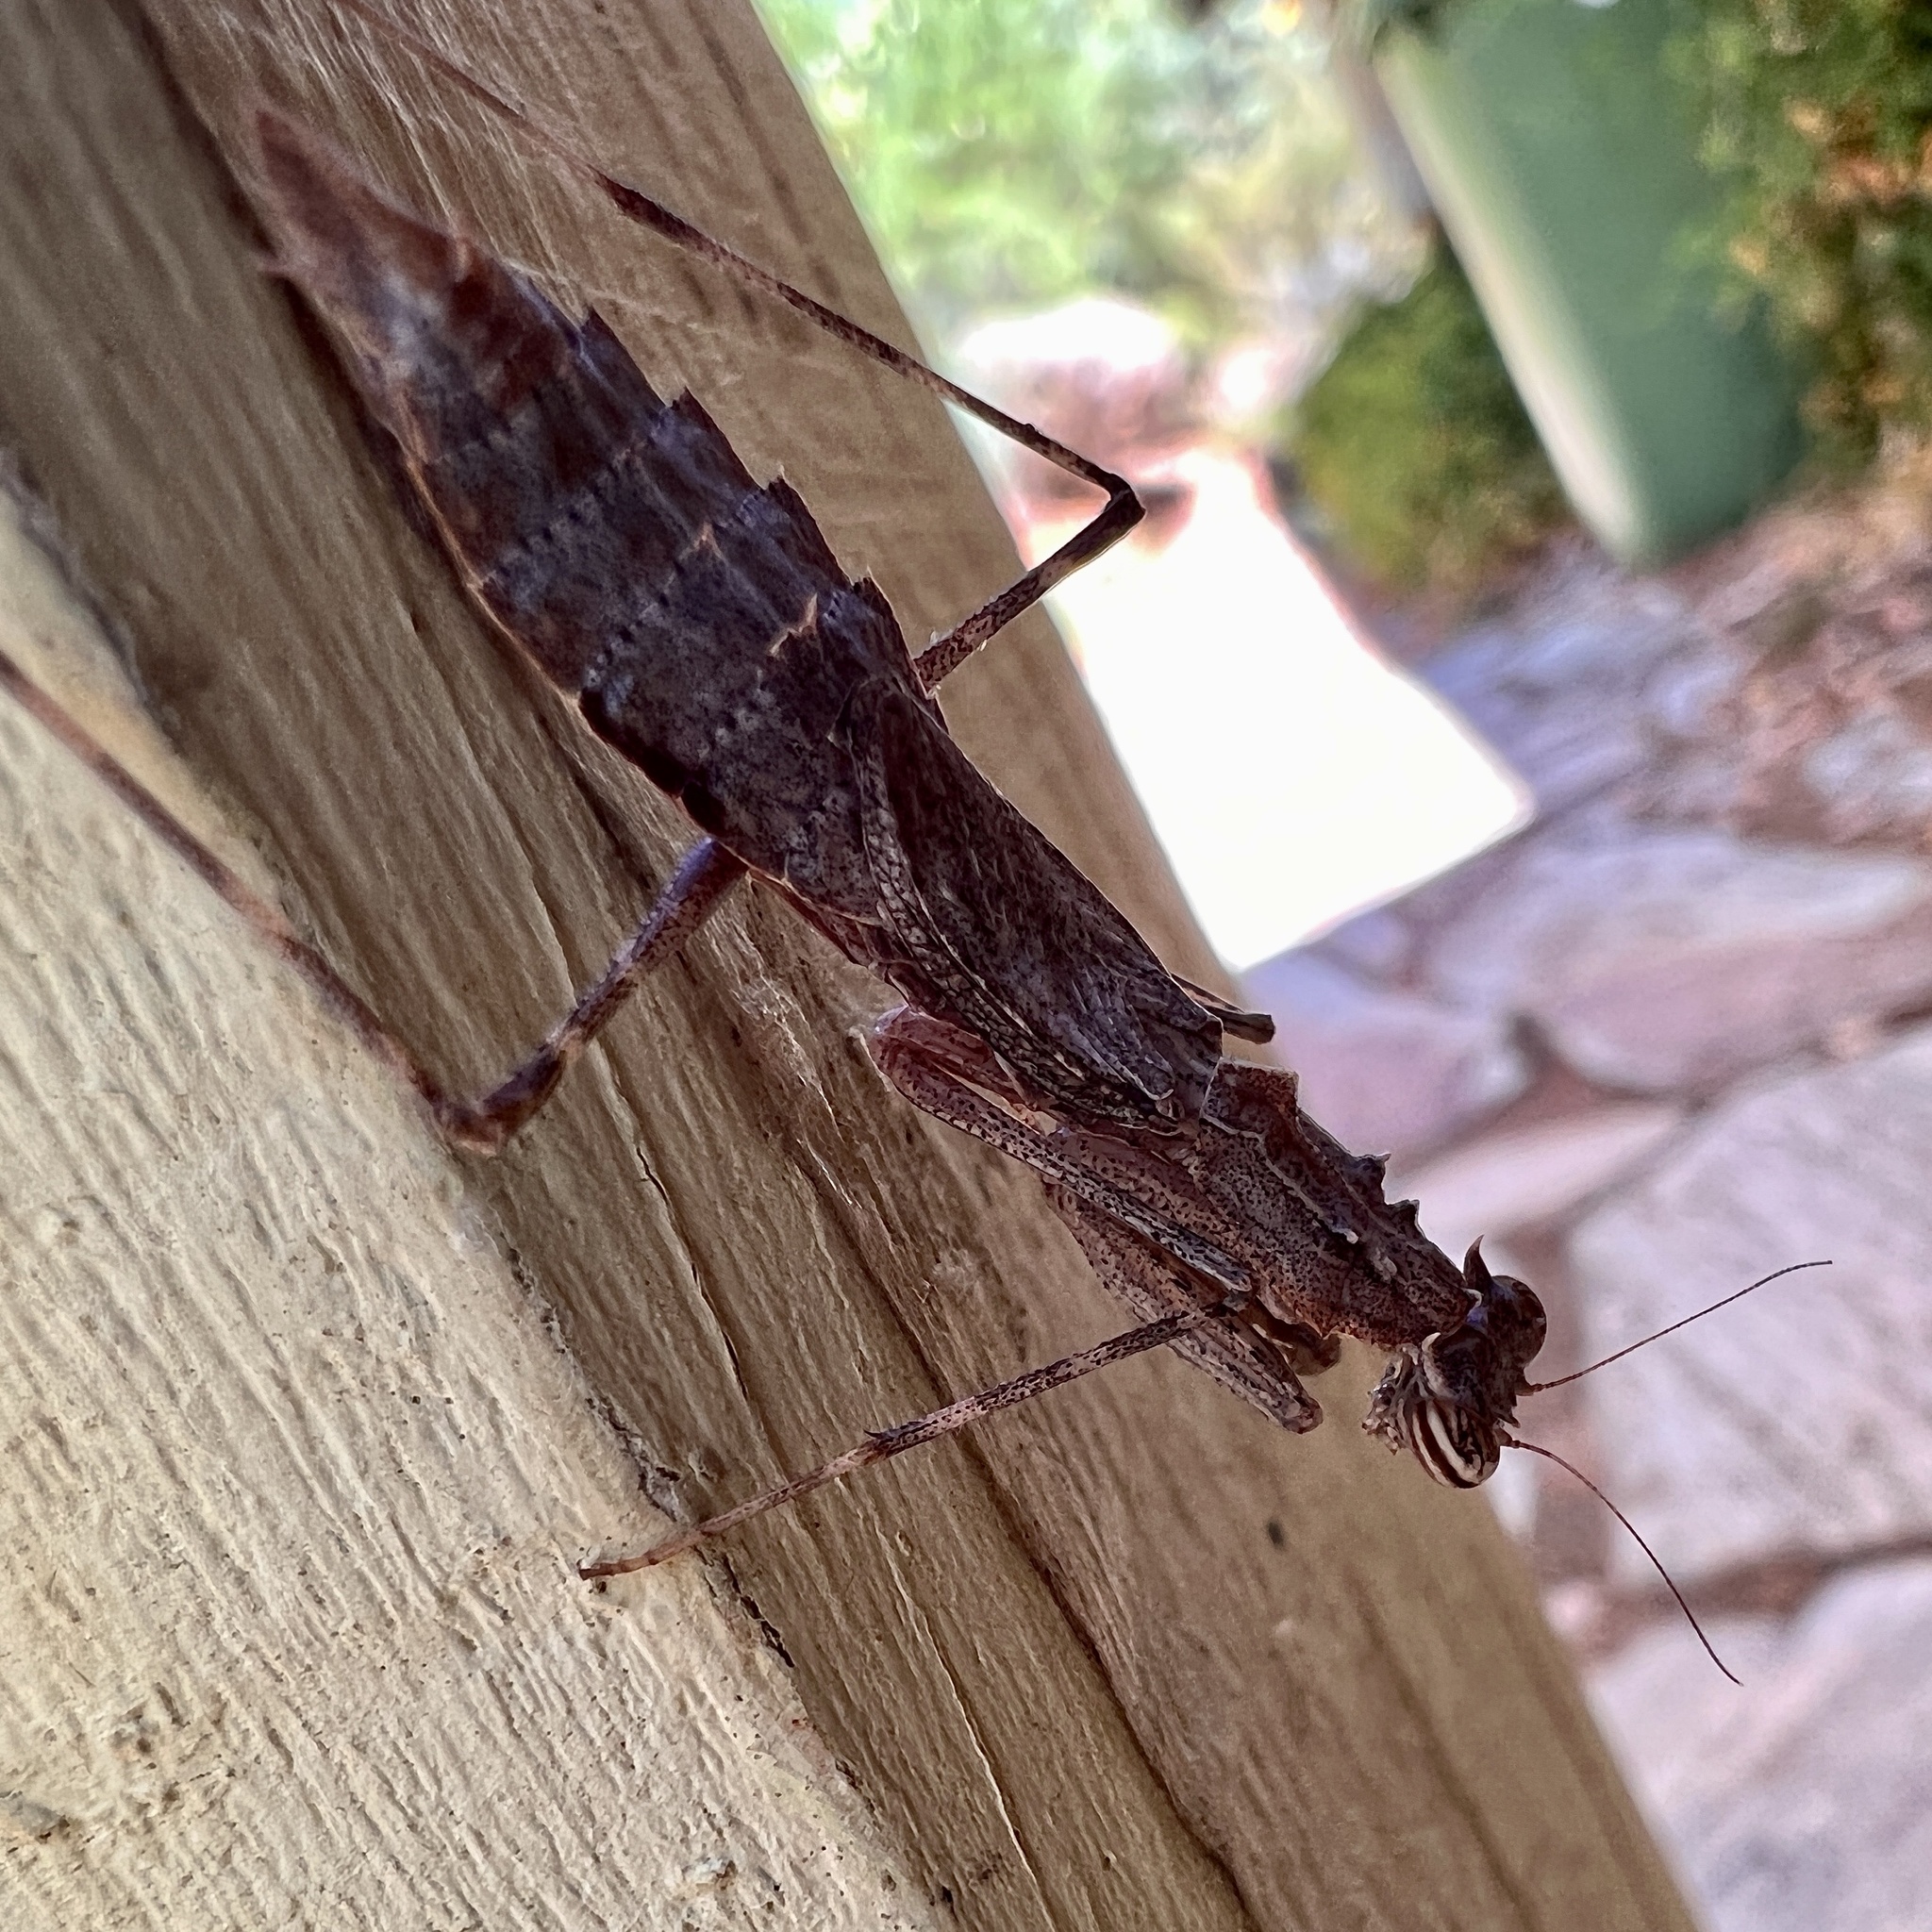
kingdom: Animalia
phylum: Arthropoda
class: Insecta
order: Mantodea
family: Nanomantidae
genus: Gyromantis
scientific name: Gyromantis kraussii
